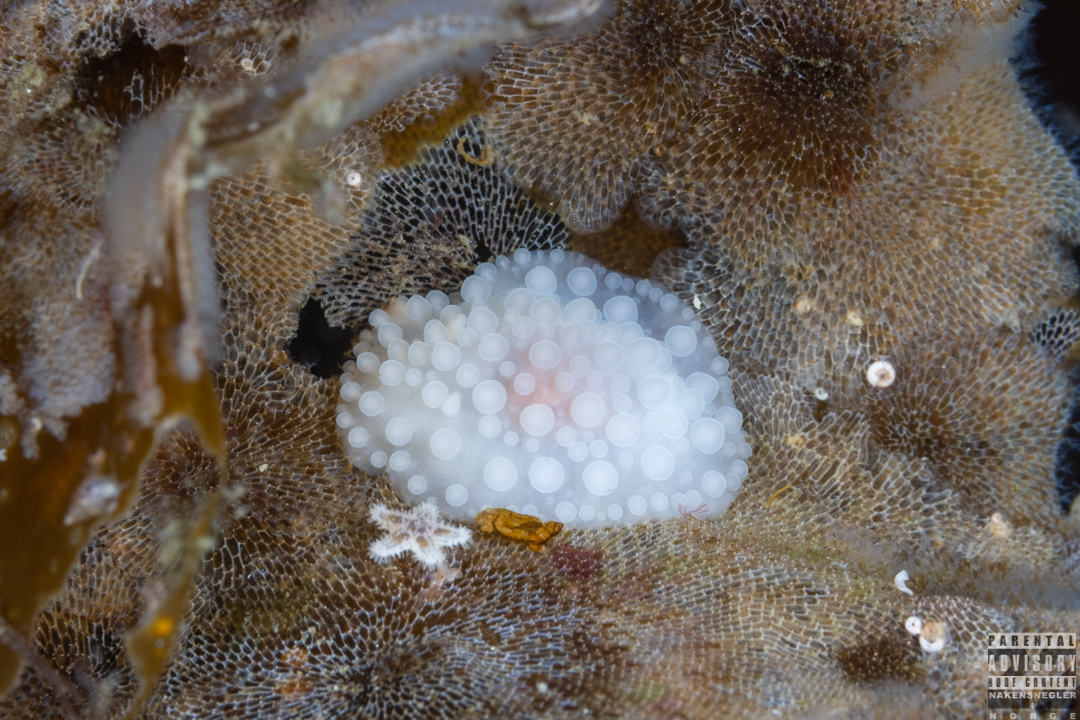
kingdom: Animalia
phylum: Mollusca
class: Gastropoda
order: Nudibranchia
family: Onchidorididae
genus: Adalaria
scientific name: Adalaria loveni
